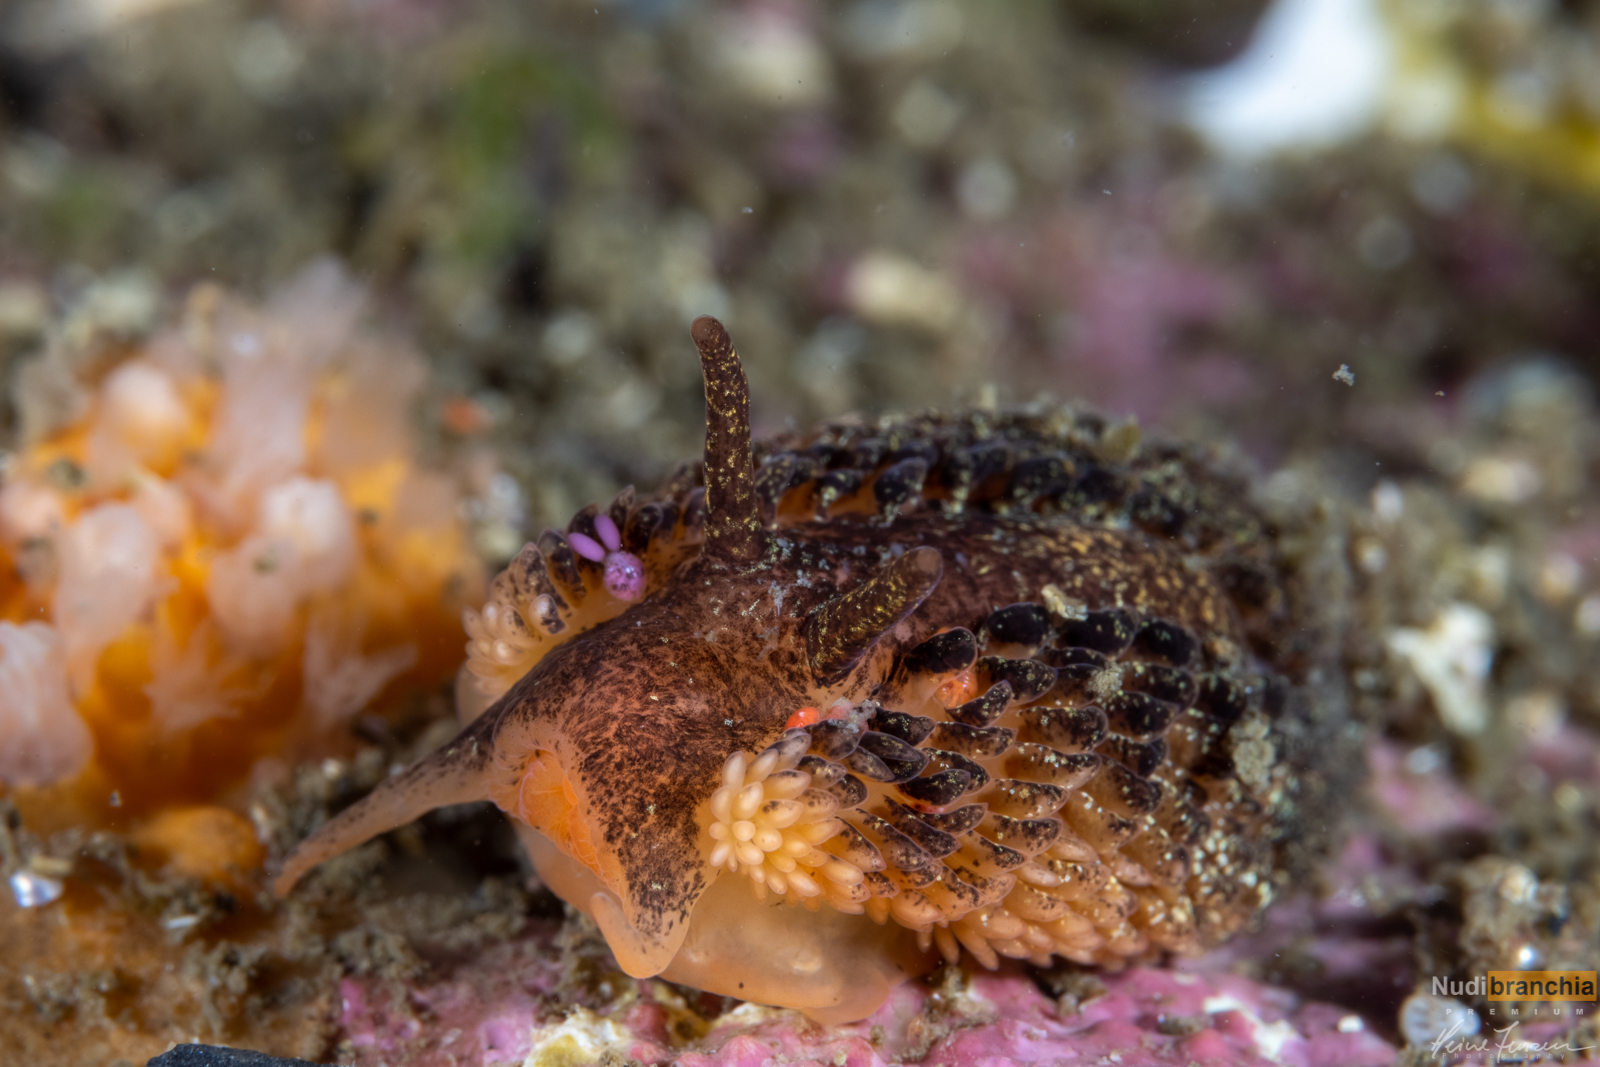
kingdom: Animalia
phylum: Mollusca
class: Gastropoda
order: Nudibranchia
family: Aeolidiidae
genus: Aeolidia
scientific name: Aeolidia papillosa
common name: Common grey sea slug
